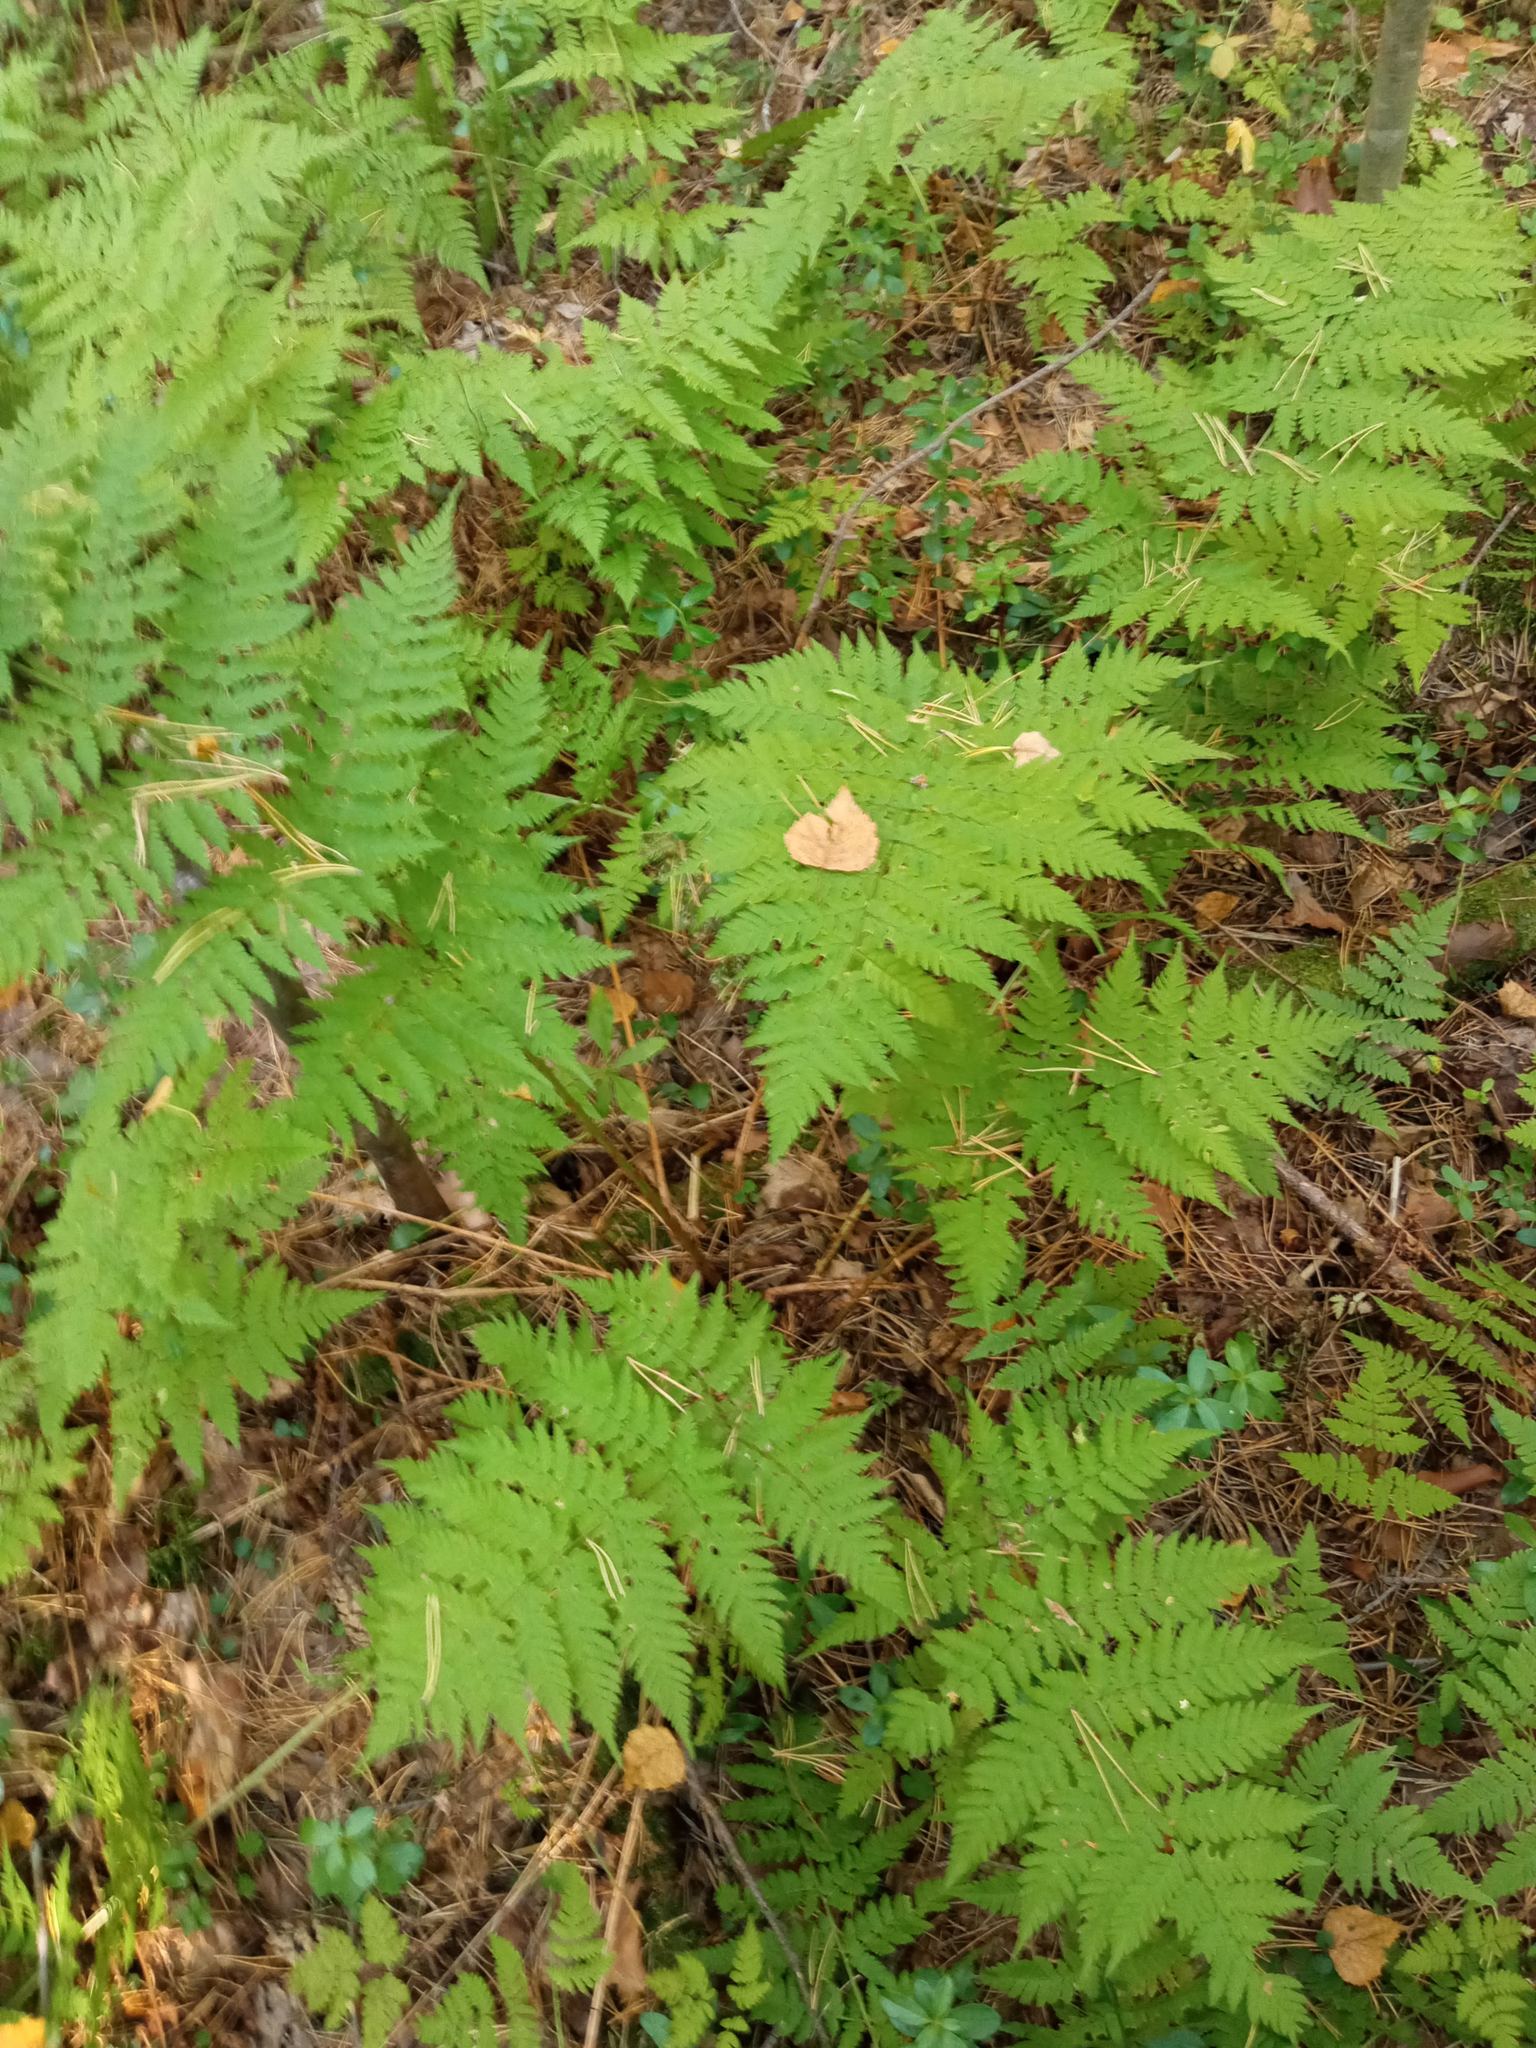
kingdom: Plantae
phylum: Tracheophyta
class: Polypodiopsida
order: Polypodiales
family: Dryopteridaceae
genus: Dryopteris
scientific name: Dryopteris expansa
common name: Northern buckler fern
